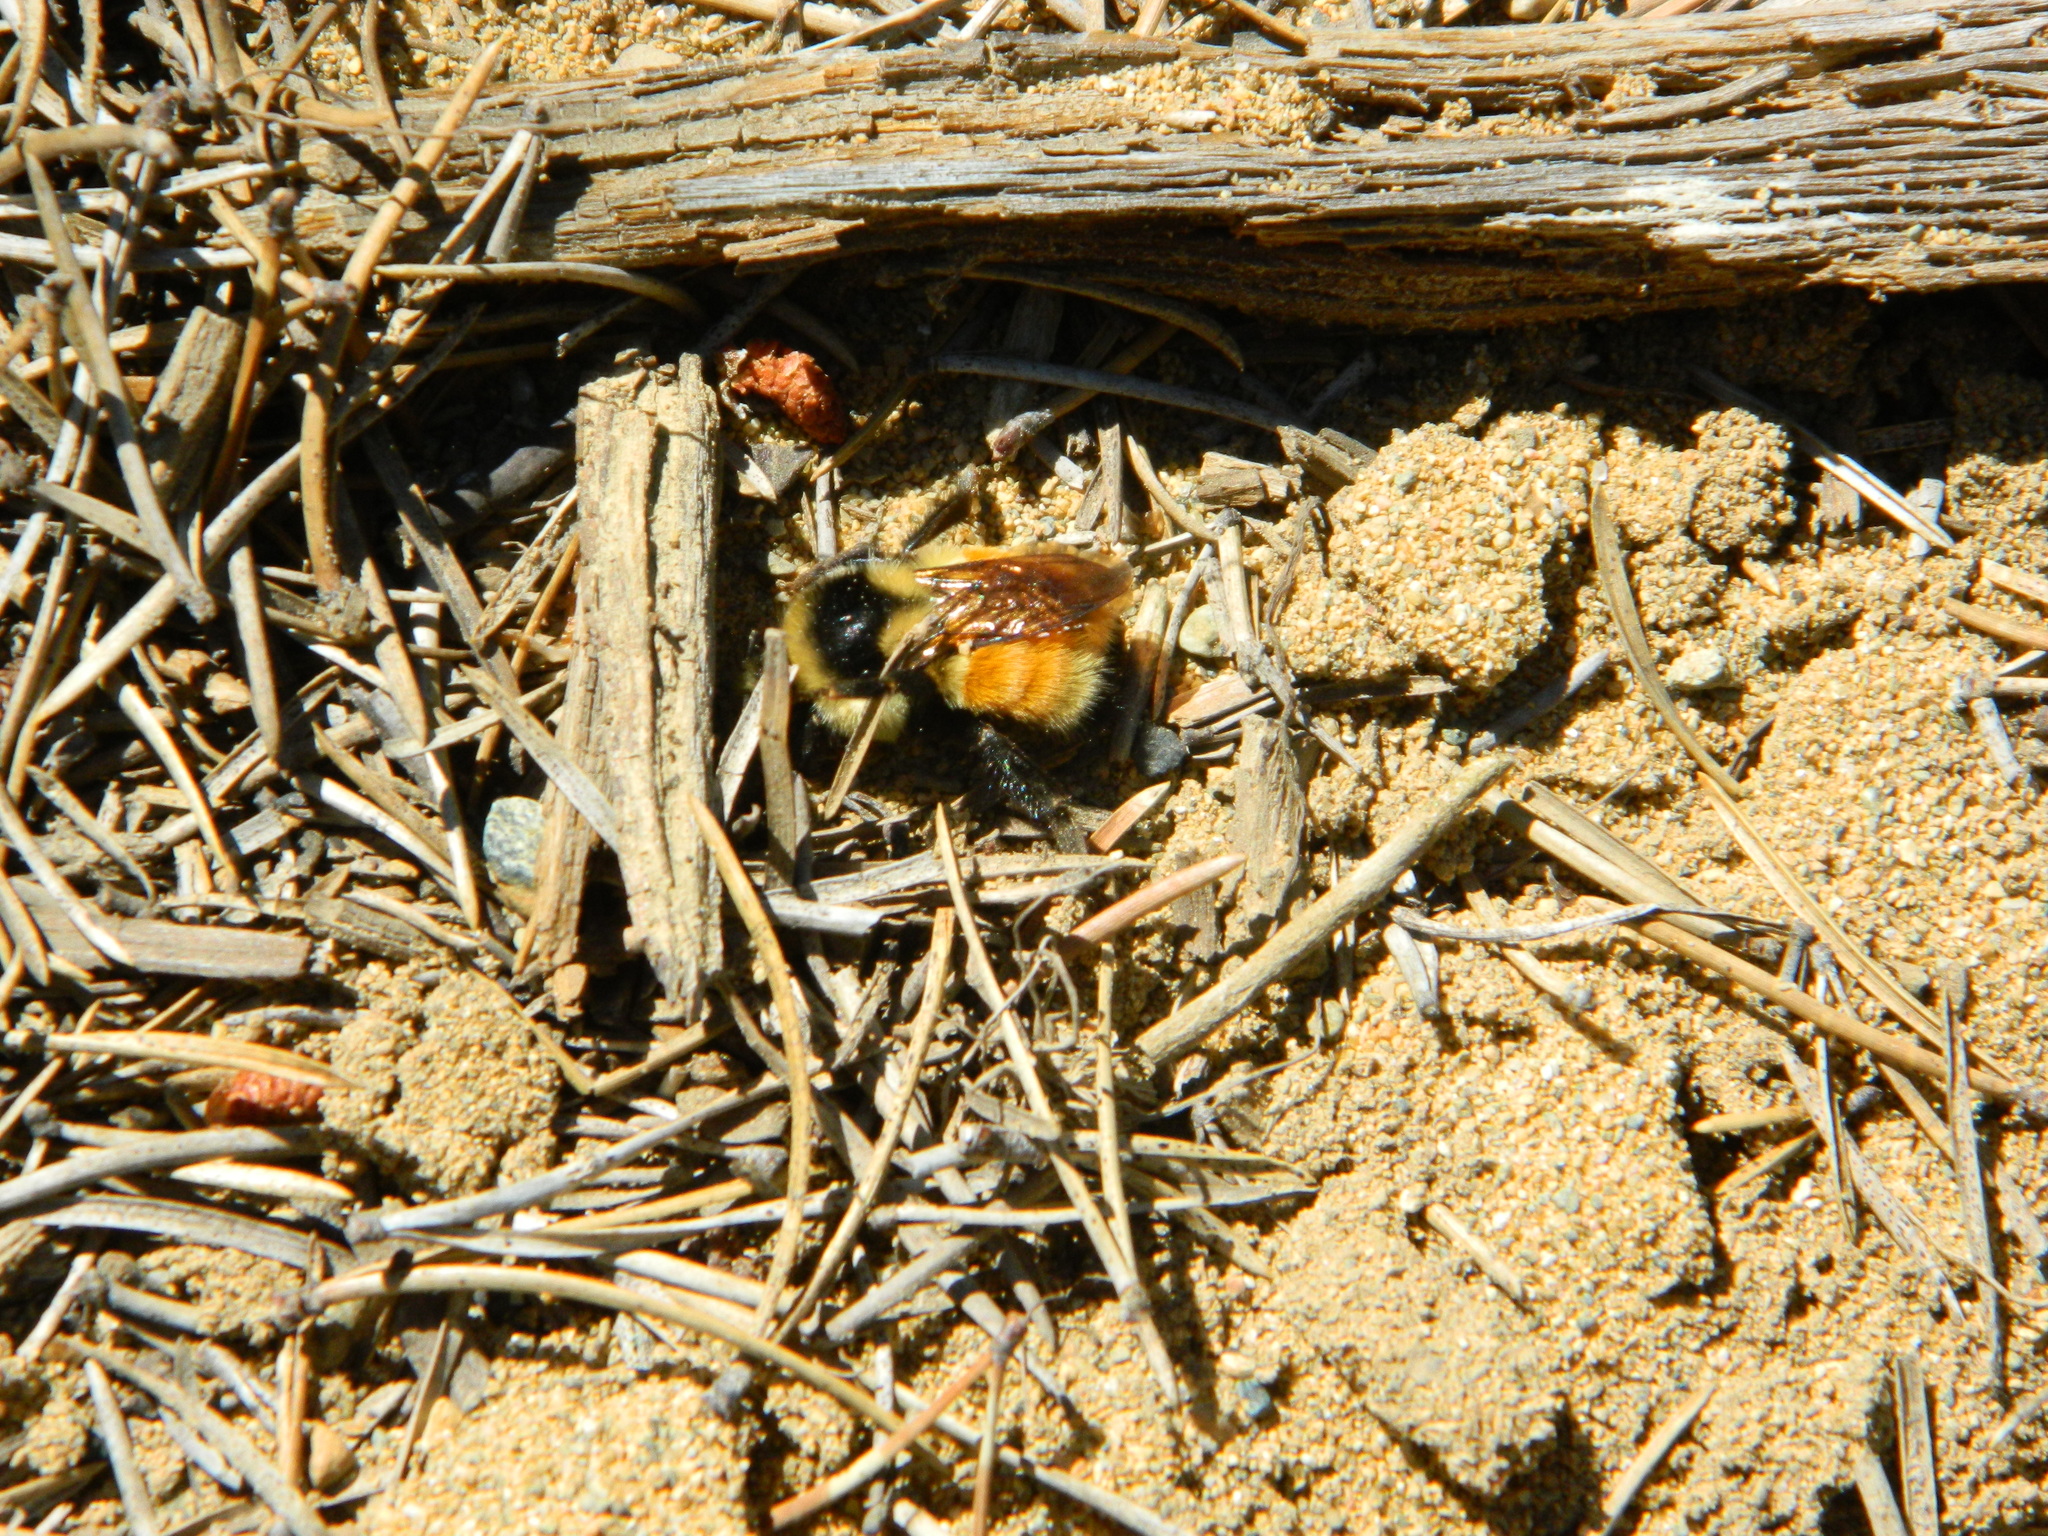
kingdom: Animalia
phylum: Arthropoda
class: Insecta
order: Hymenoptera
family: Apidae
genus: Bombus
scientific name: Bombus ternarius
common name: Tri-colored bumble bee
